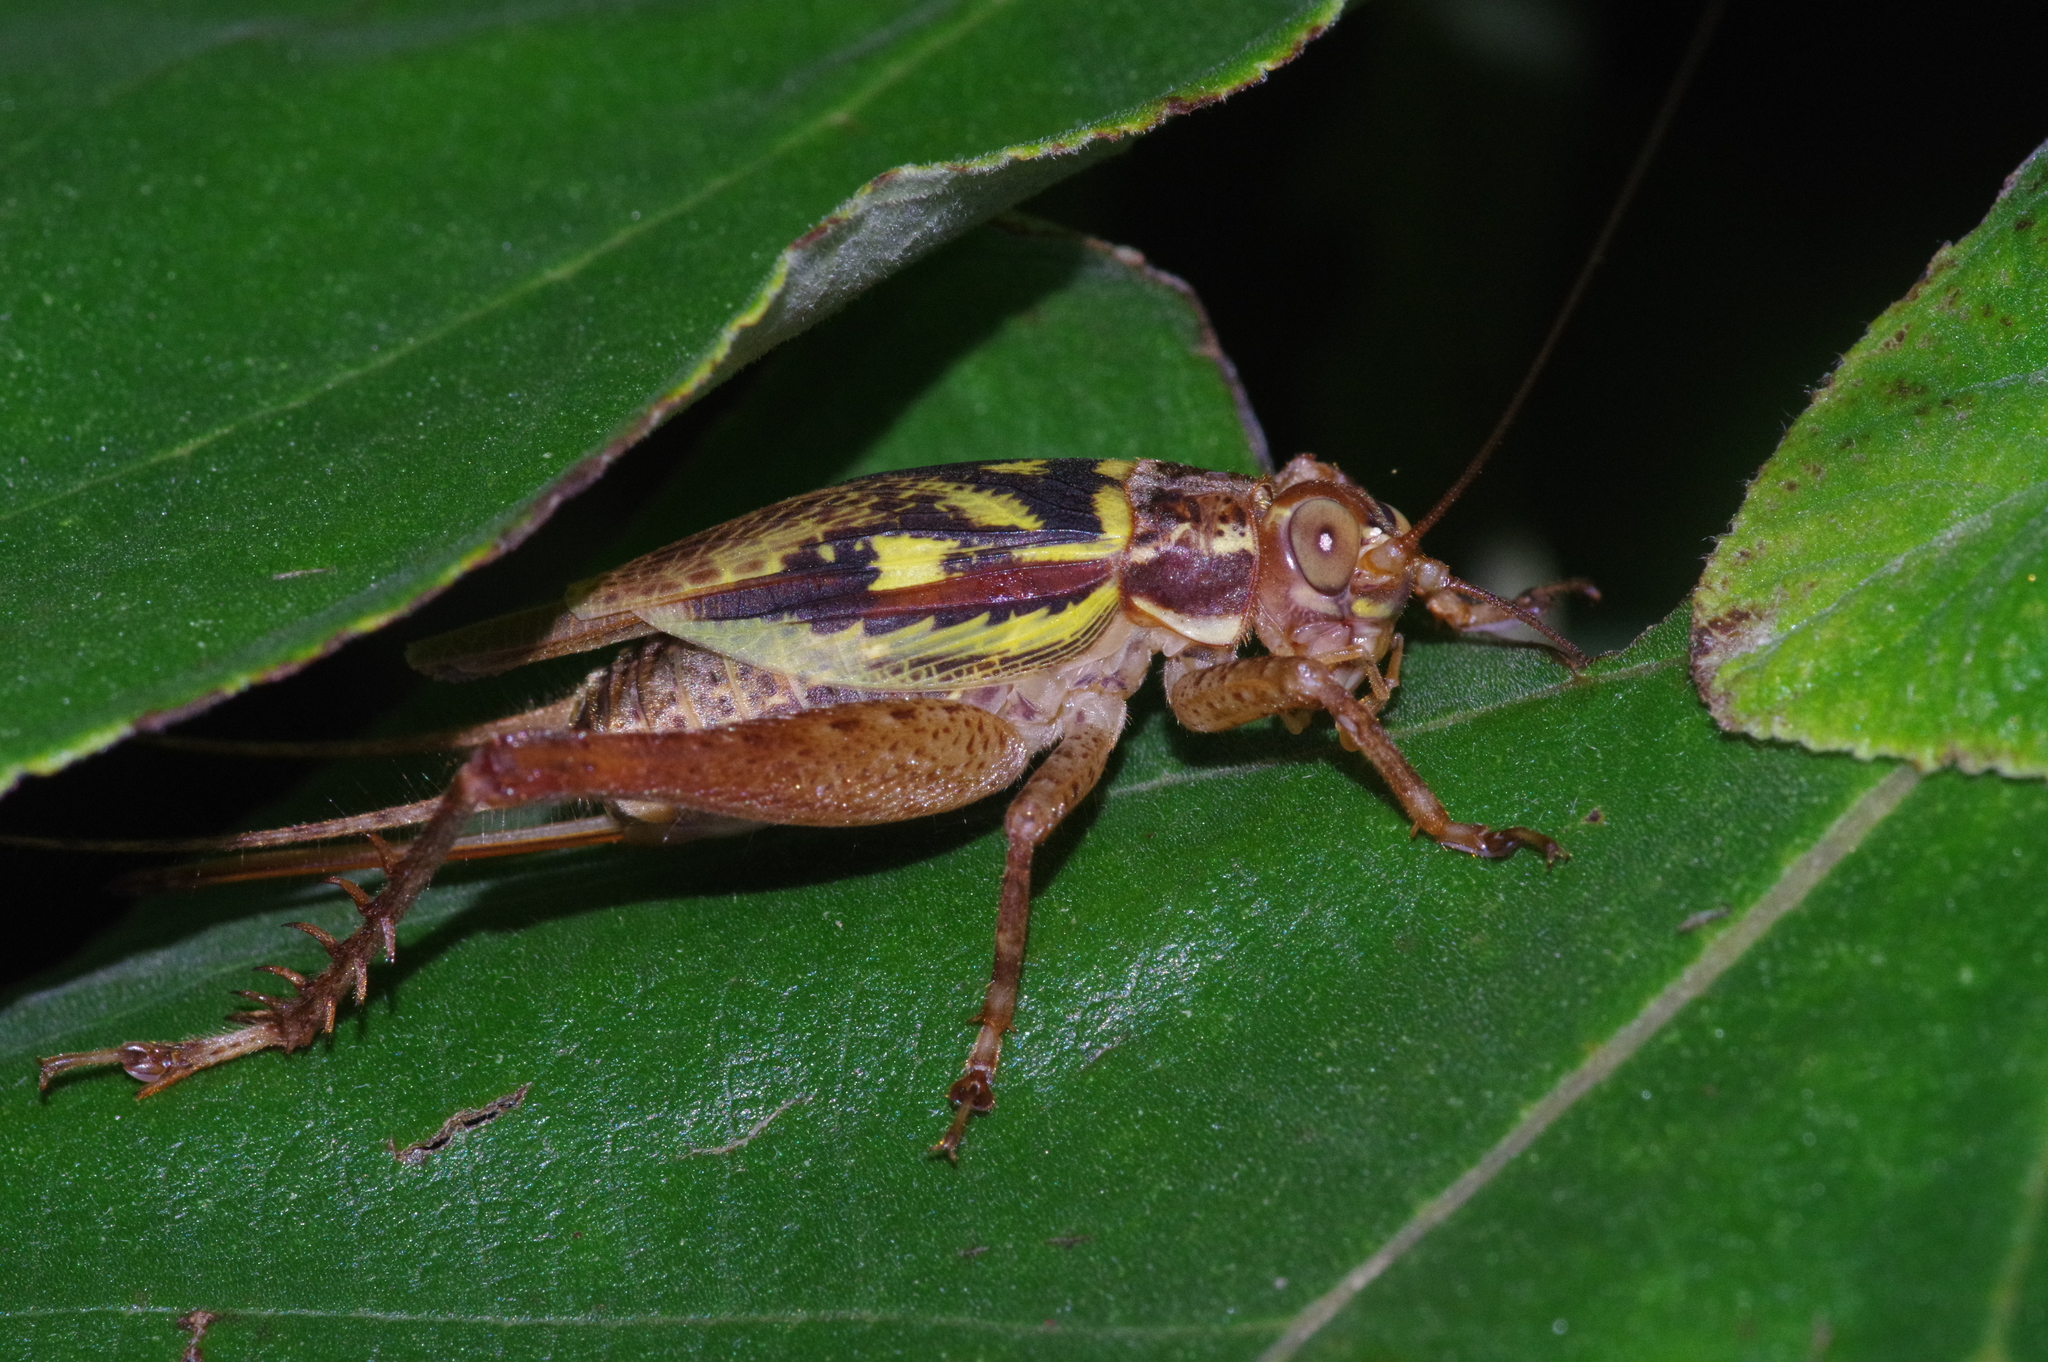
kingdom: Animalia
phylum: Arthropoda
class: Insecta
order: Orthoptera
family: Gryllidae
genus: Cardiodactylus
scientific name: Cardiodactylus guttulus
